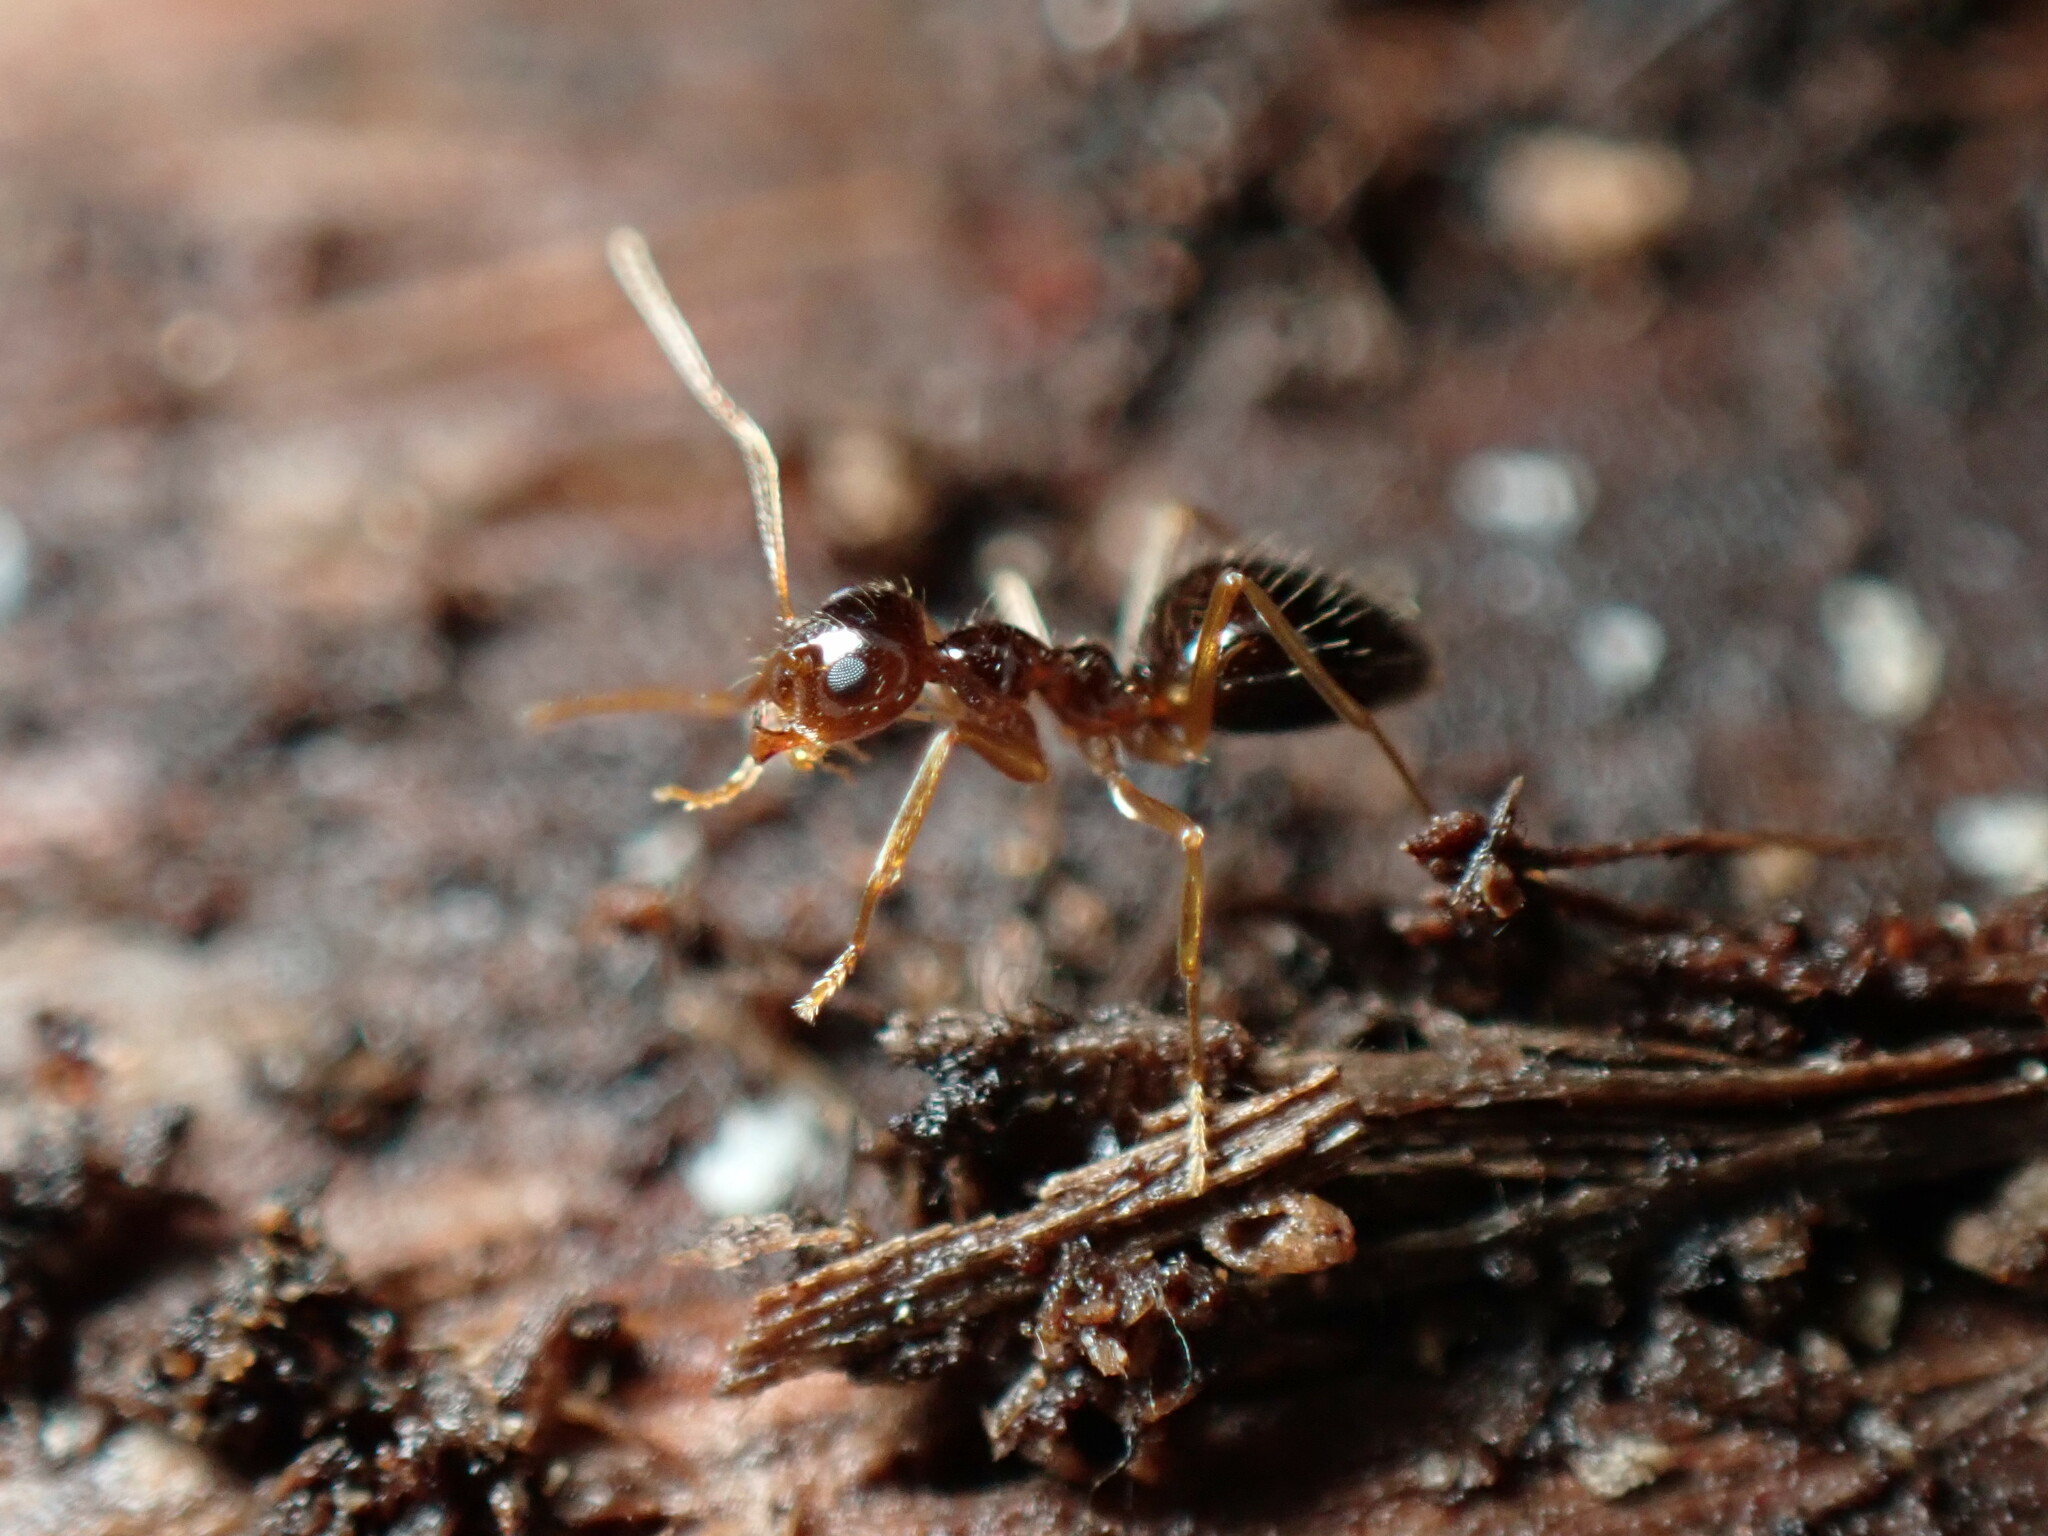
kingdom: Animalia
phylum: Arthropoda
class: Insecta
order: Hymenoptera
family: Formicidae
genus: Prenolepis
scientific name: Prenolepis imparis
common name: Small honey ant
